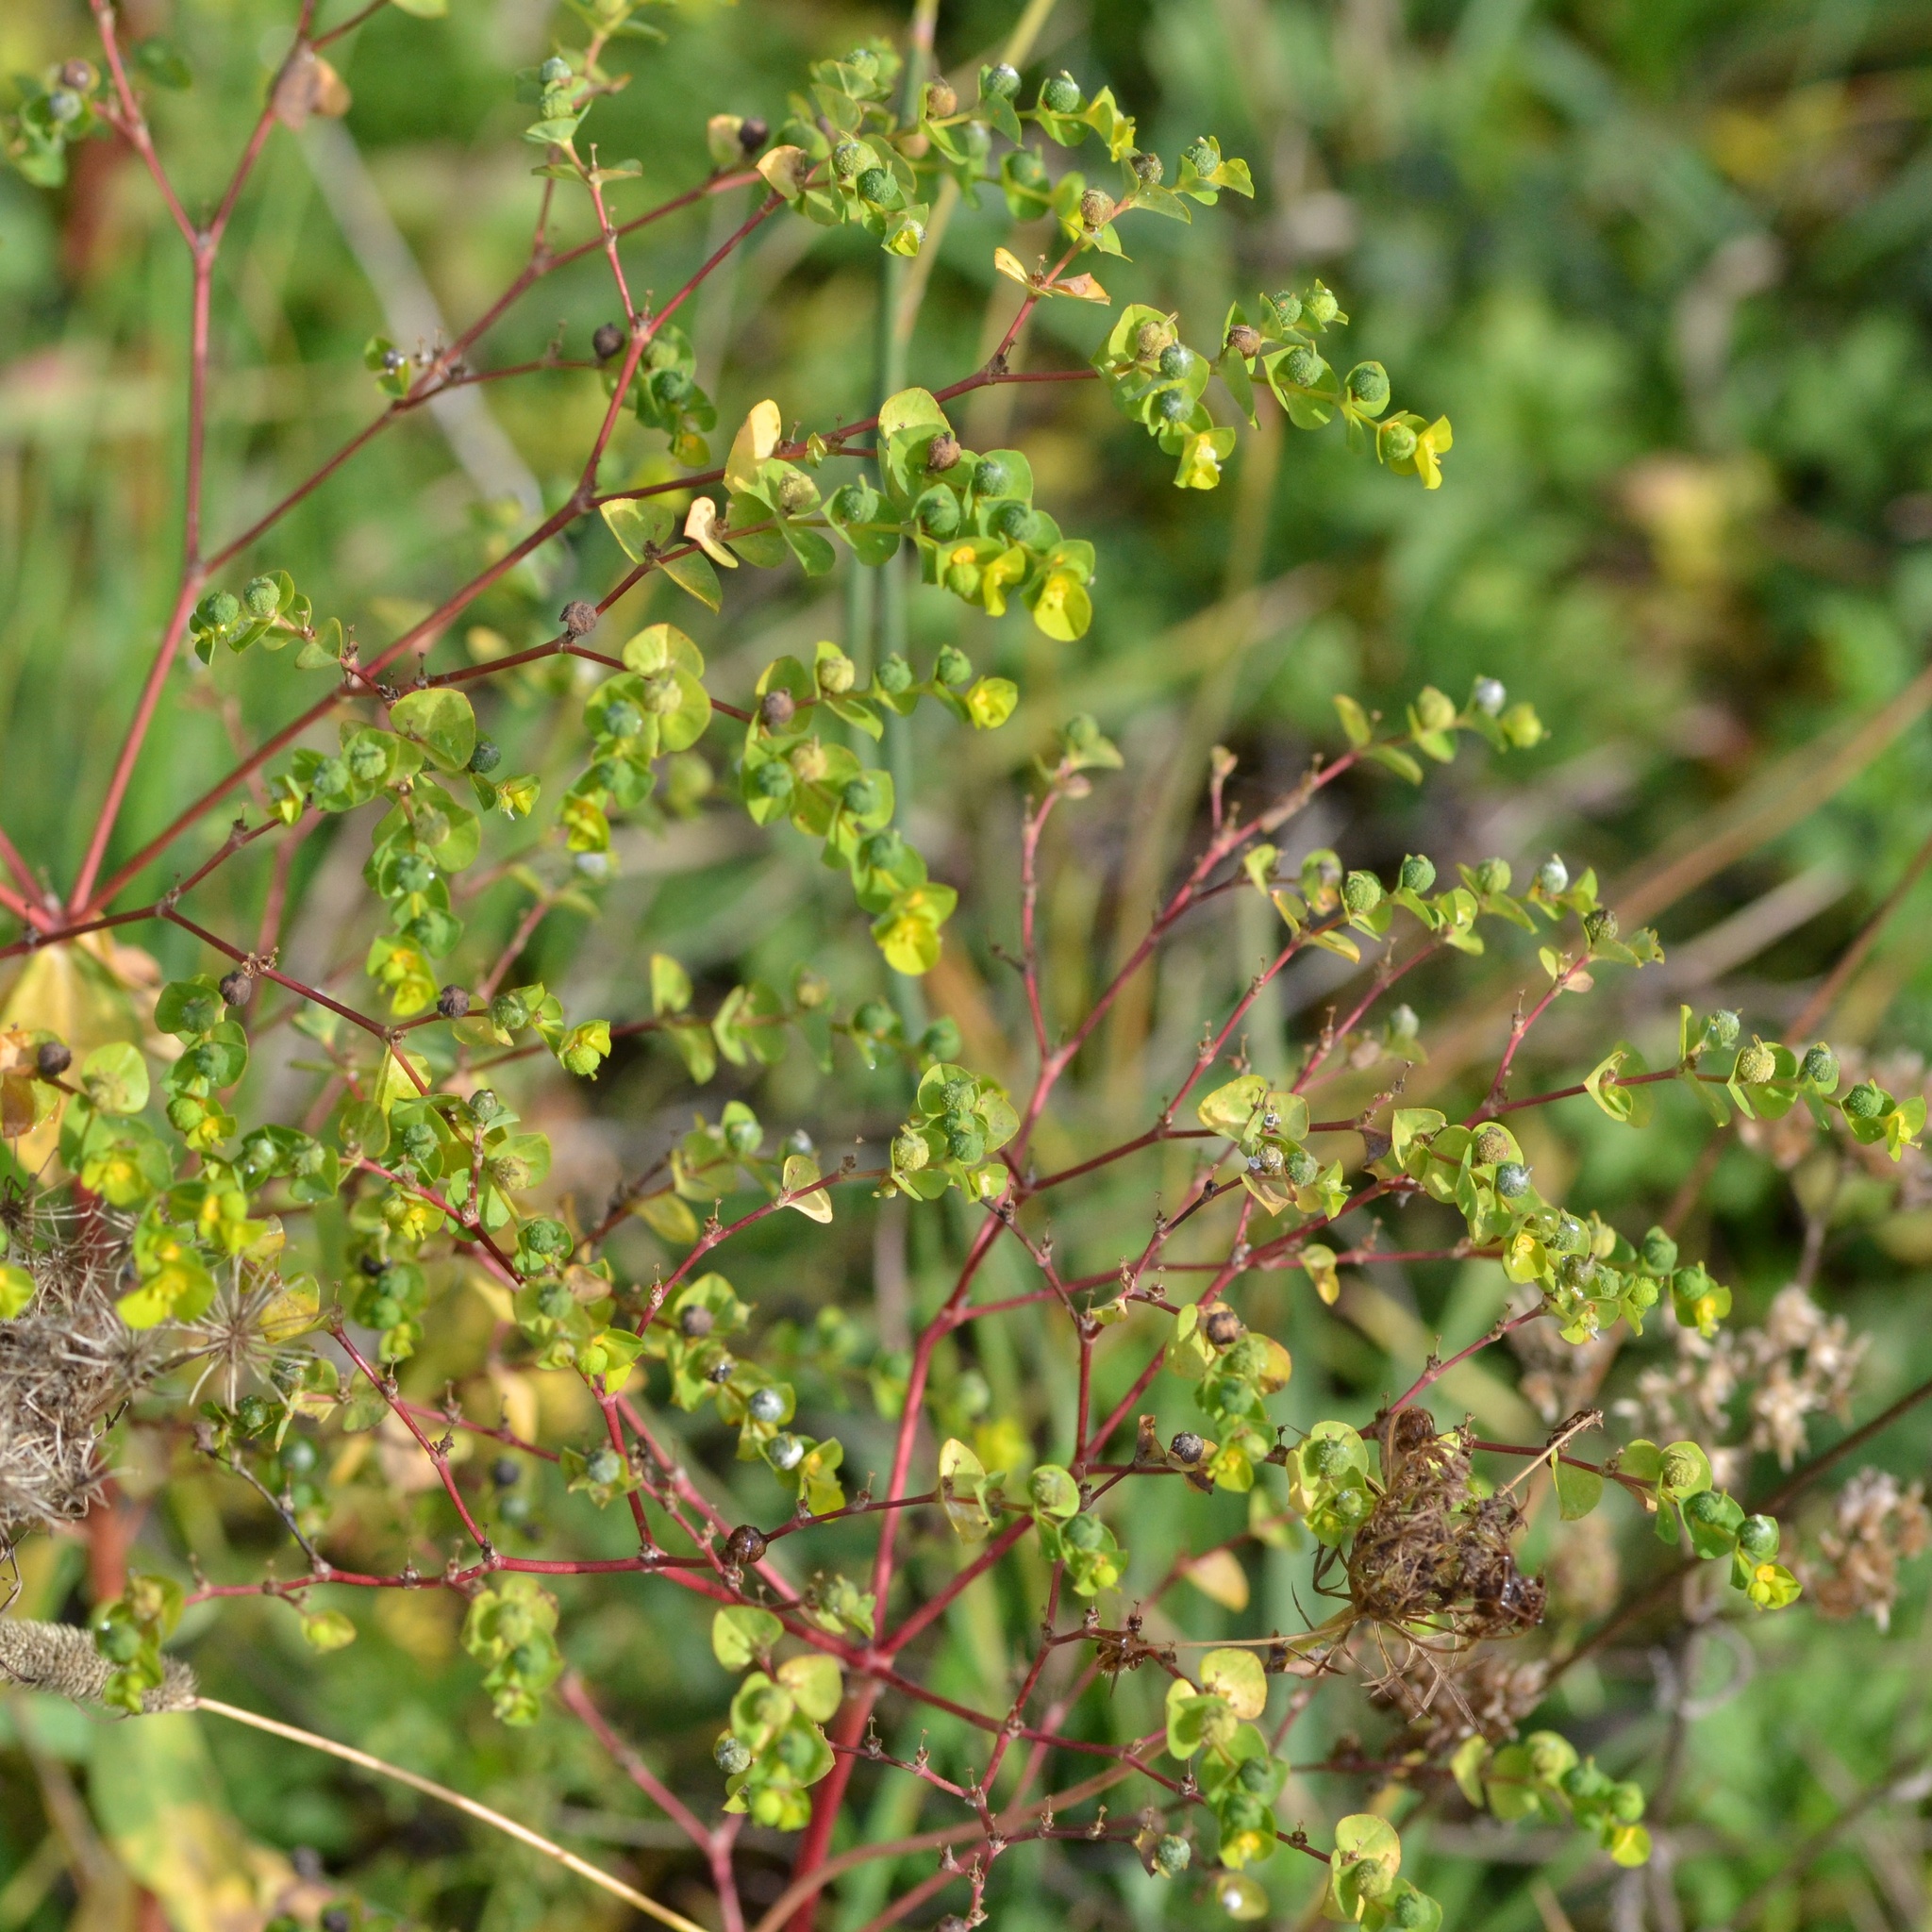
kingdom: Plantae
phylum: Tracheophyta
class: Magnoliopsida
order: Malpighiales
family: Euphorbiaceae
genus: Euphorbia
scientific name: Euphorbia platyphyllos
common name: Broad-leaved spurge
